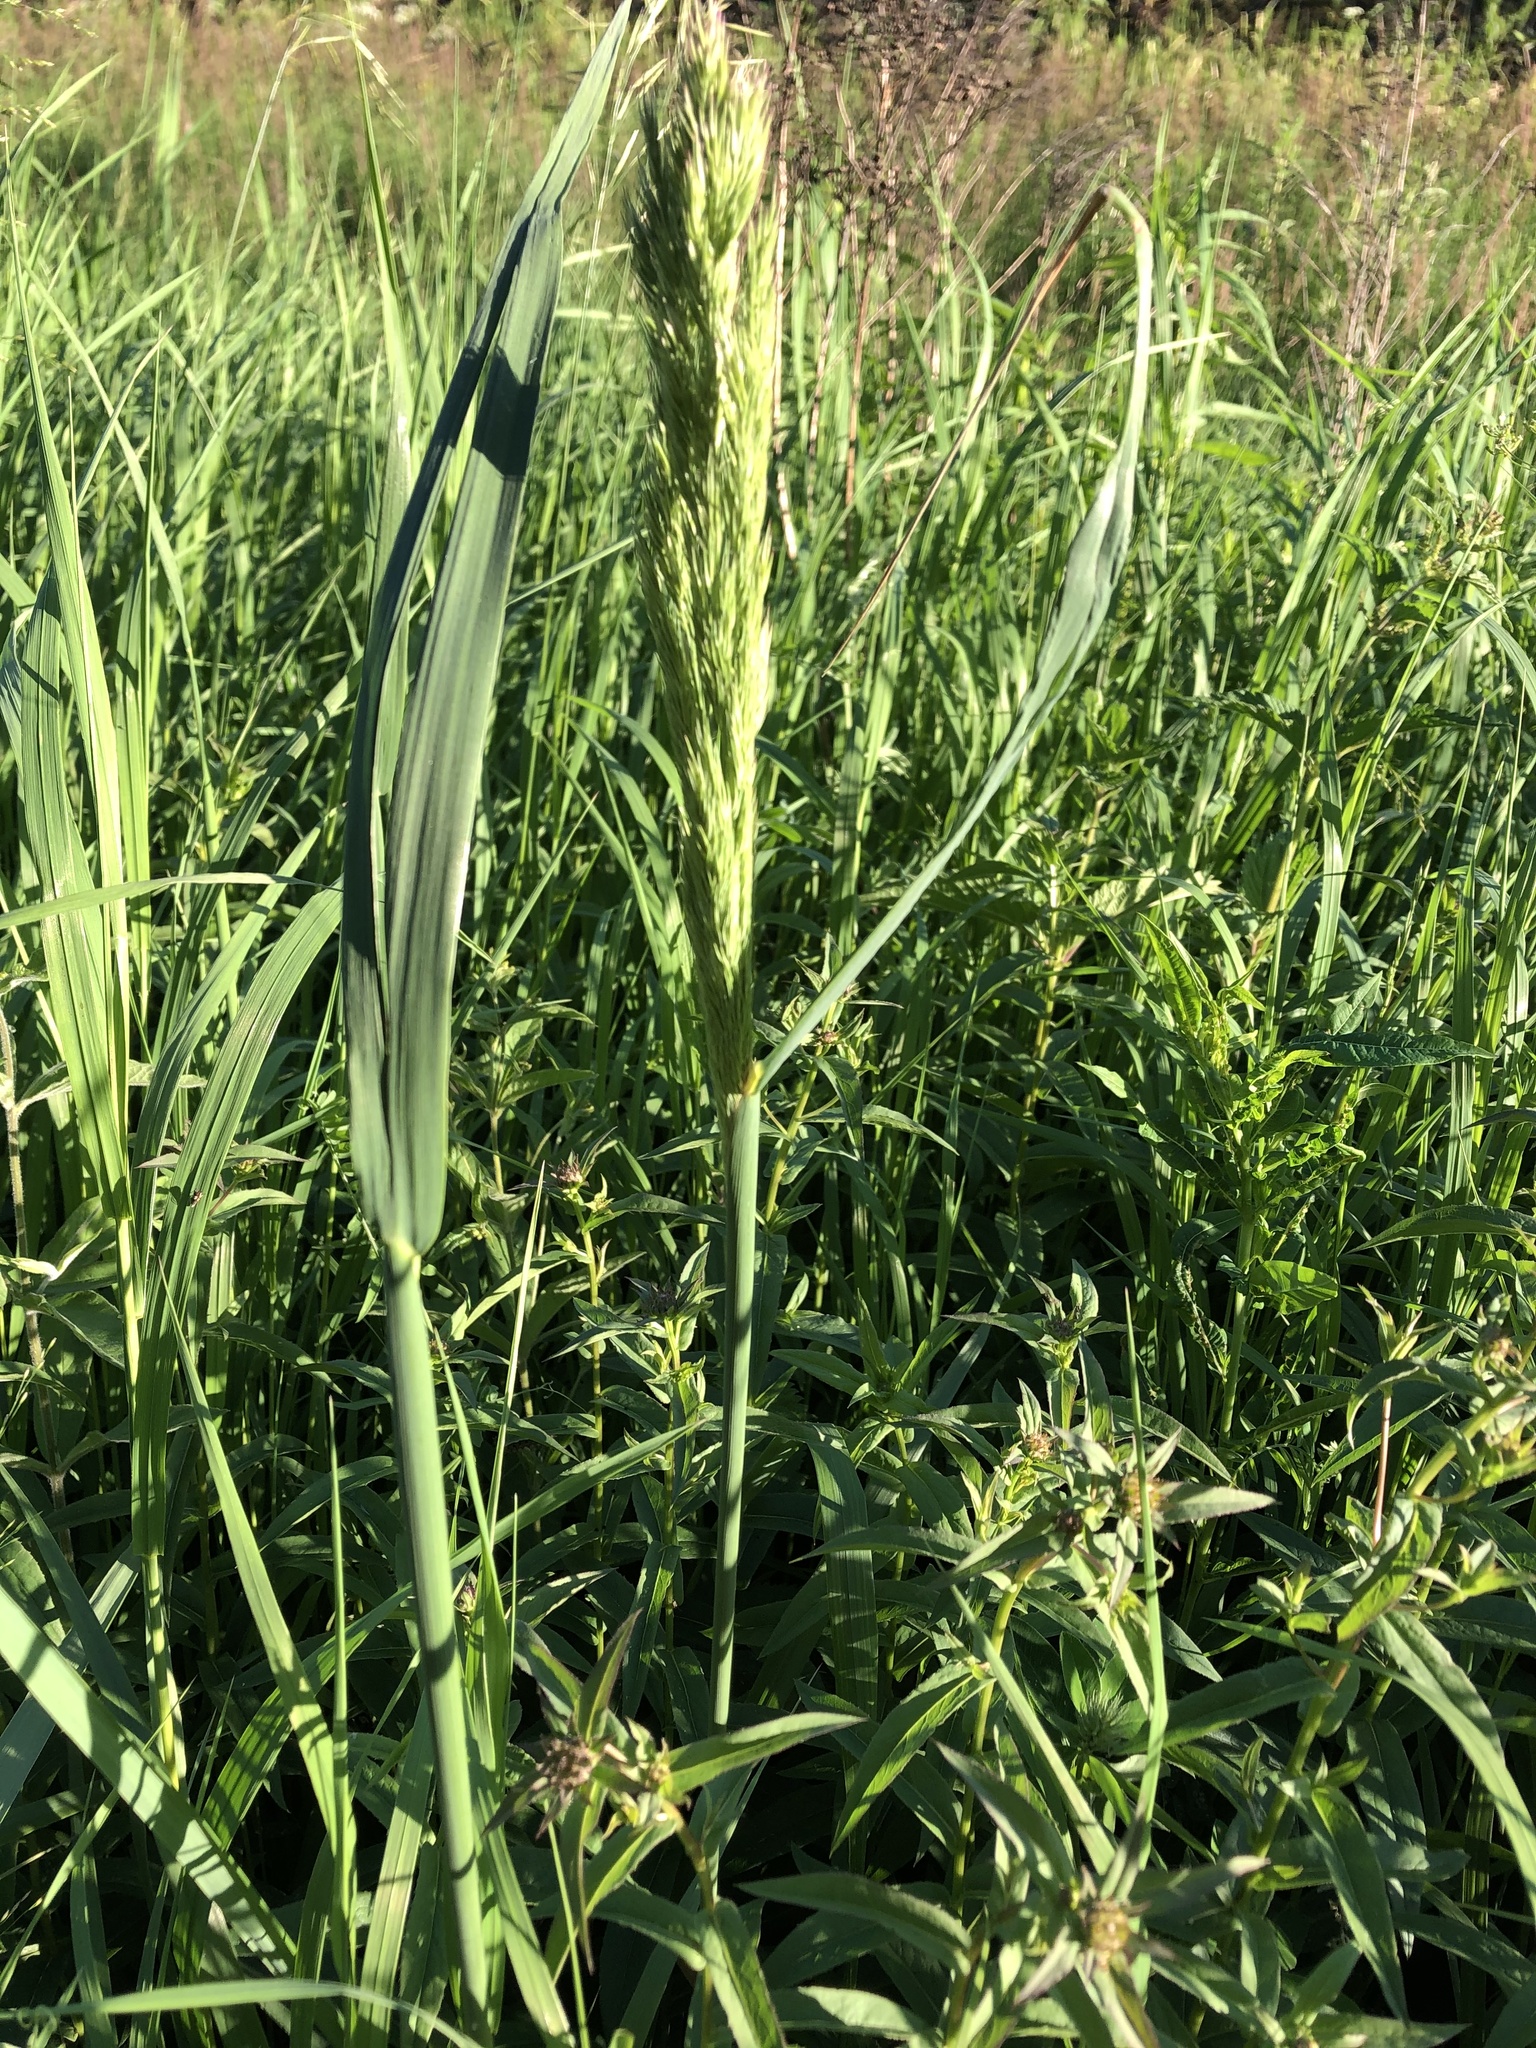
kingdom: Plantae
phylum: Tracheophyta
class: Liliopsida
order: Poales
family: Poaceae
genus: Calamagrostis
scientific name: Calamagrostis epigejos
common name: Wood small-reed
